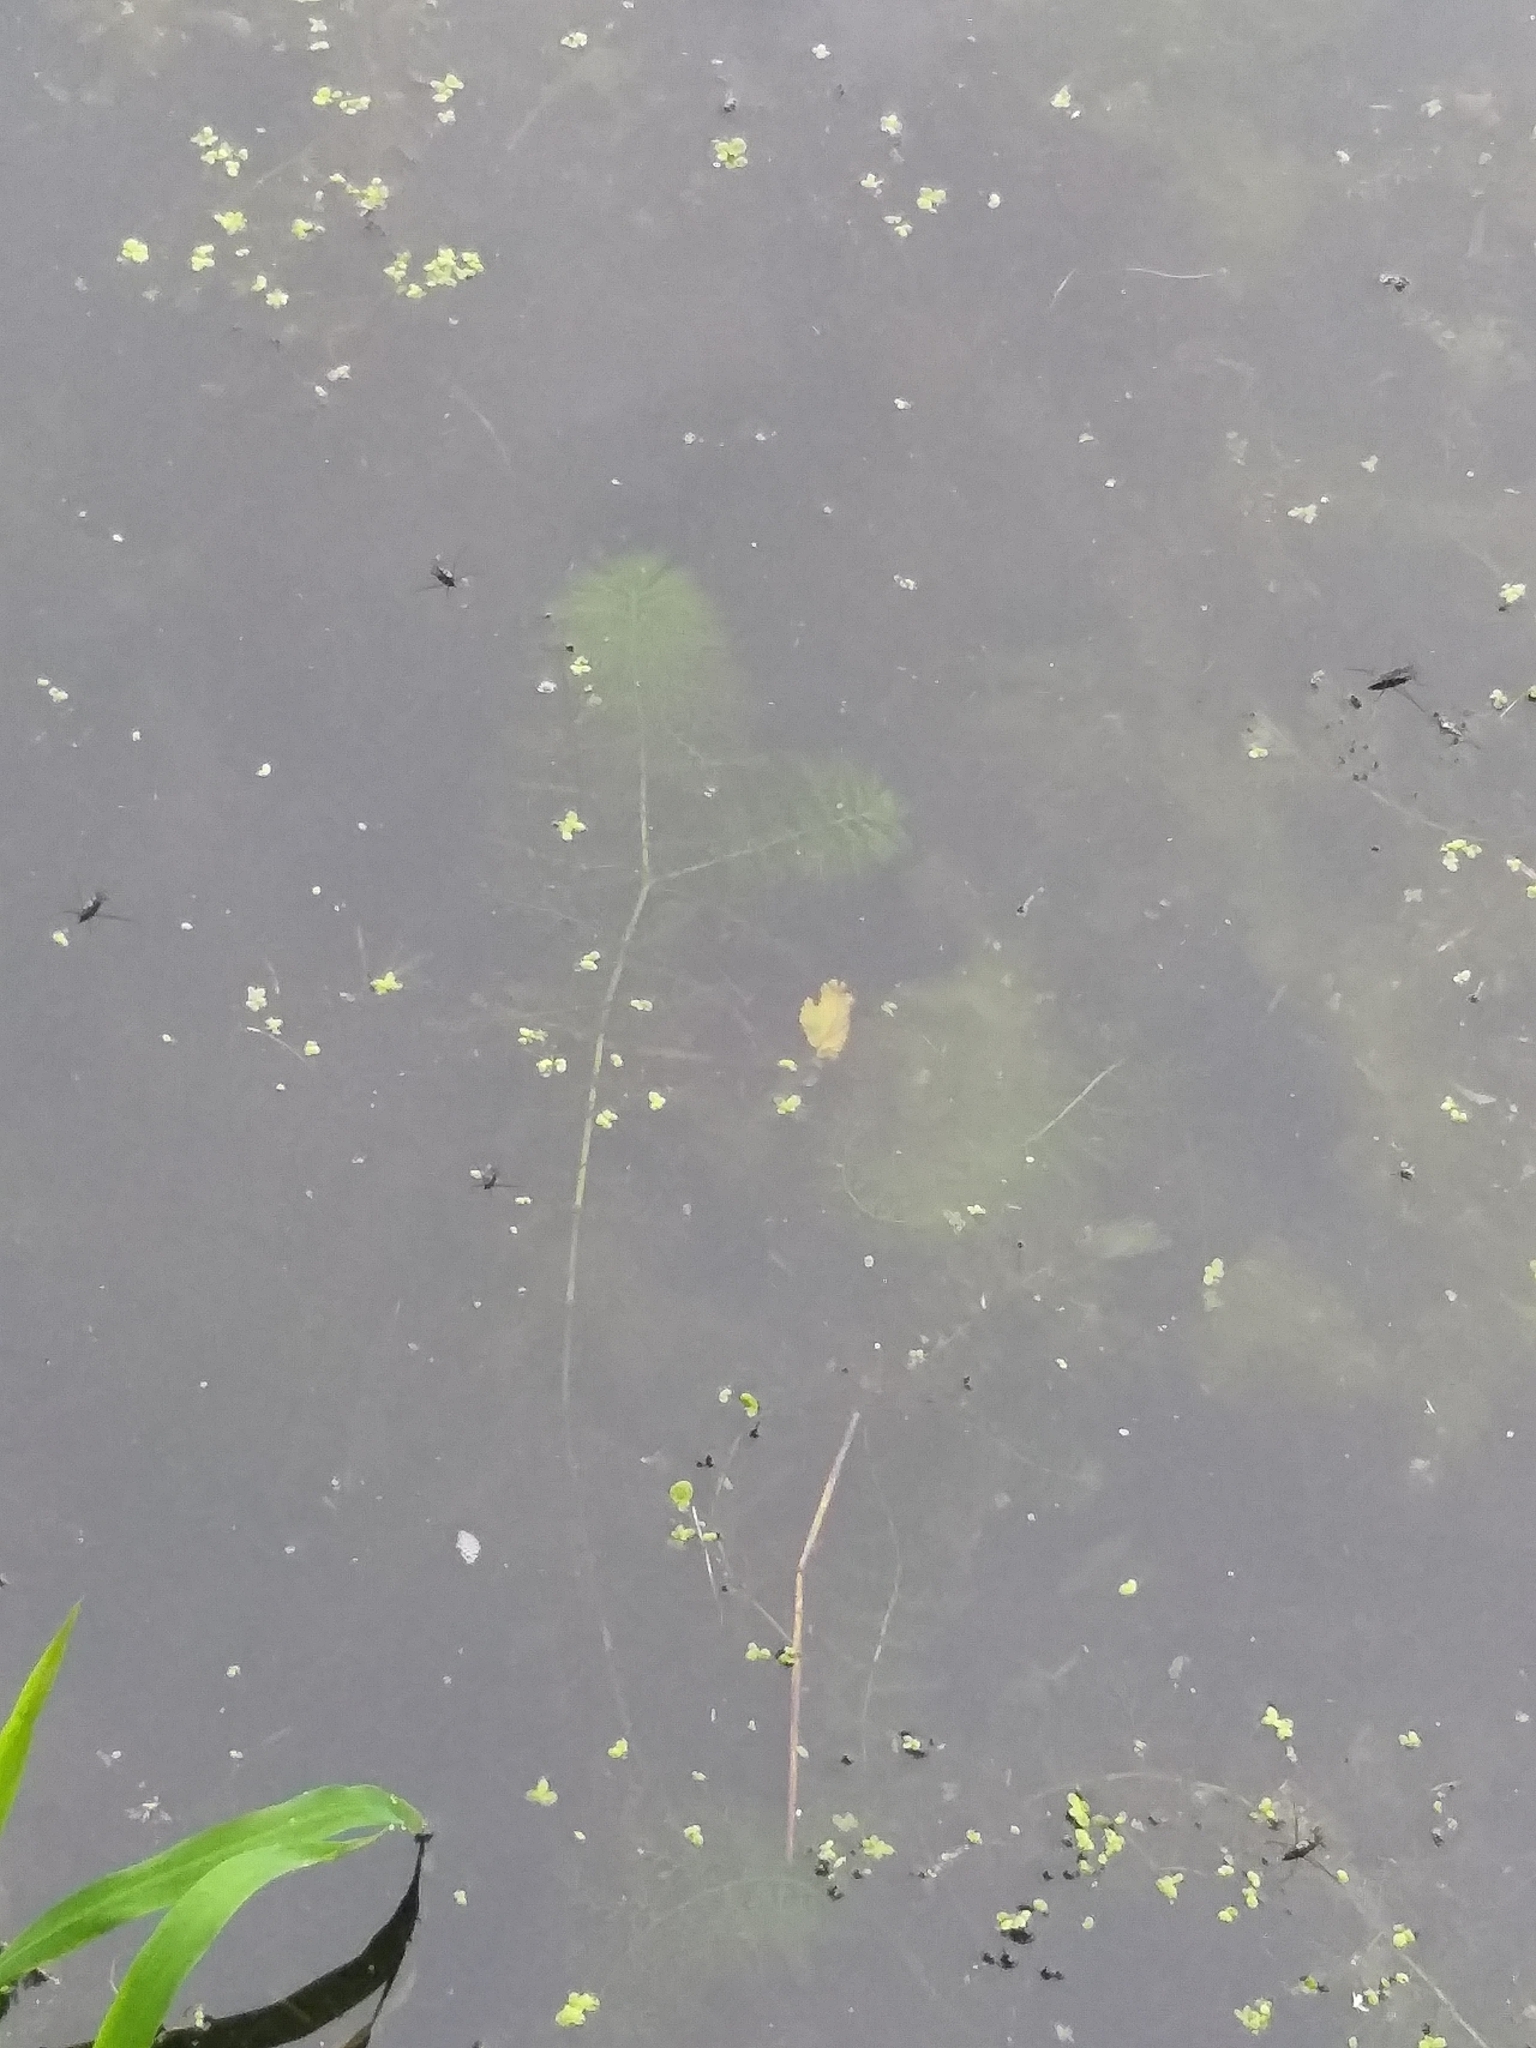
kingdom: Plantae
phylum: Tracheophyta
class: Magnoliopsida
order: Lamiales
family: Lentibulariaceae
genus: Utricularia
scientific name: Utricularia macrorhiza
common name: Common bladderwort
